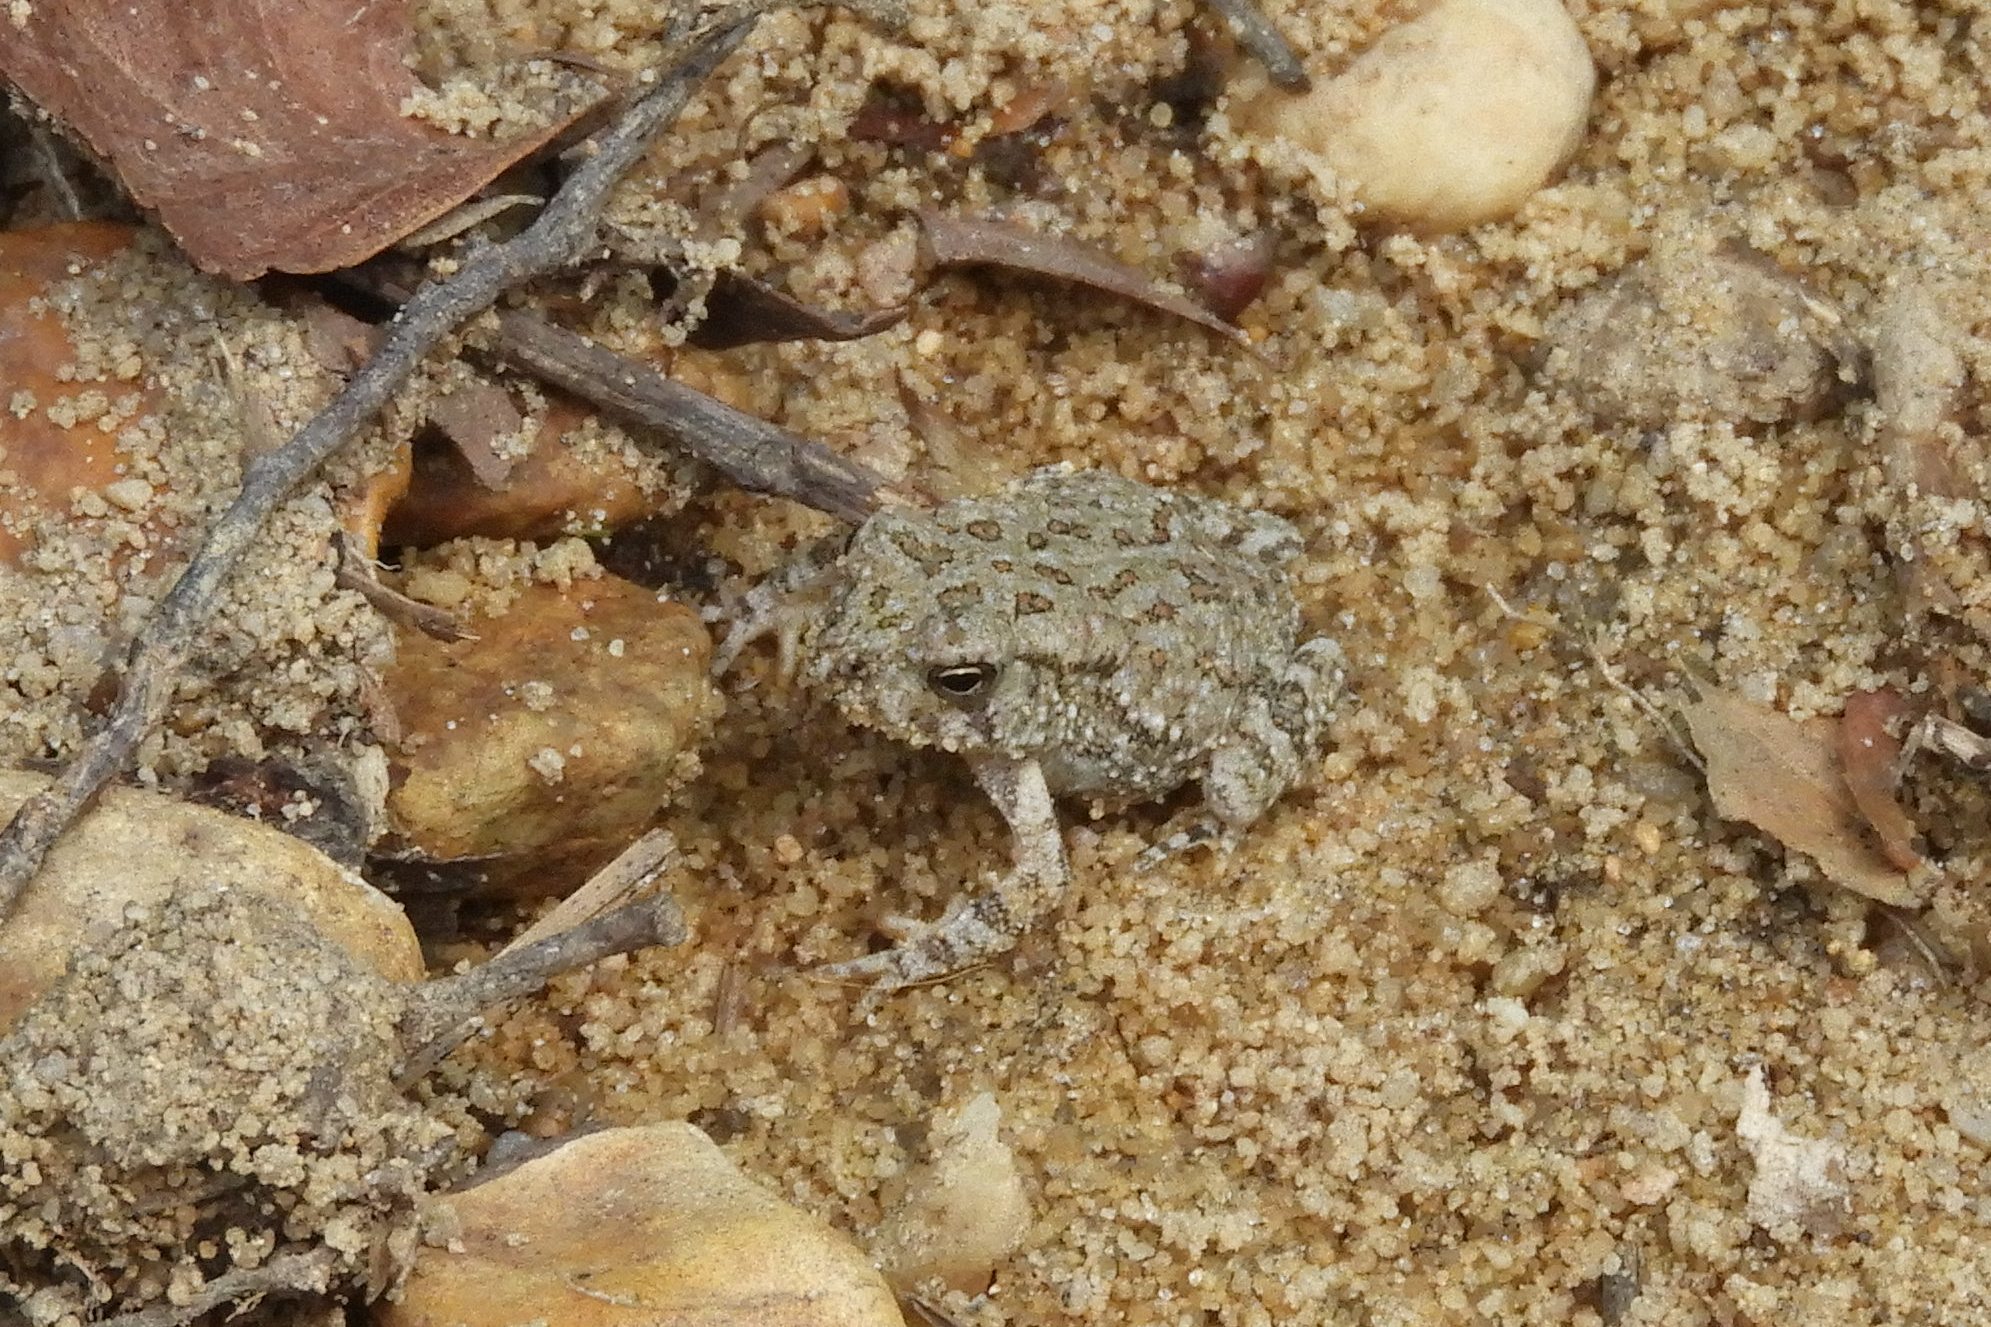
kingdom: Animalia
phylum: Chordata
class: Amphibia
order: Anura
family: Bufonidae
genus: Anaxyrus
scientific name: Anaxyrus fowleri
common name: Fowler's toad
